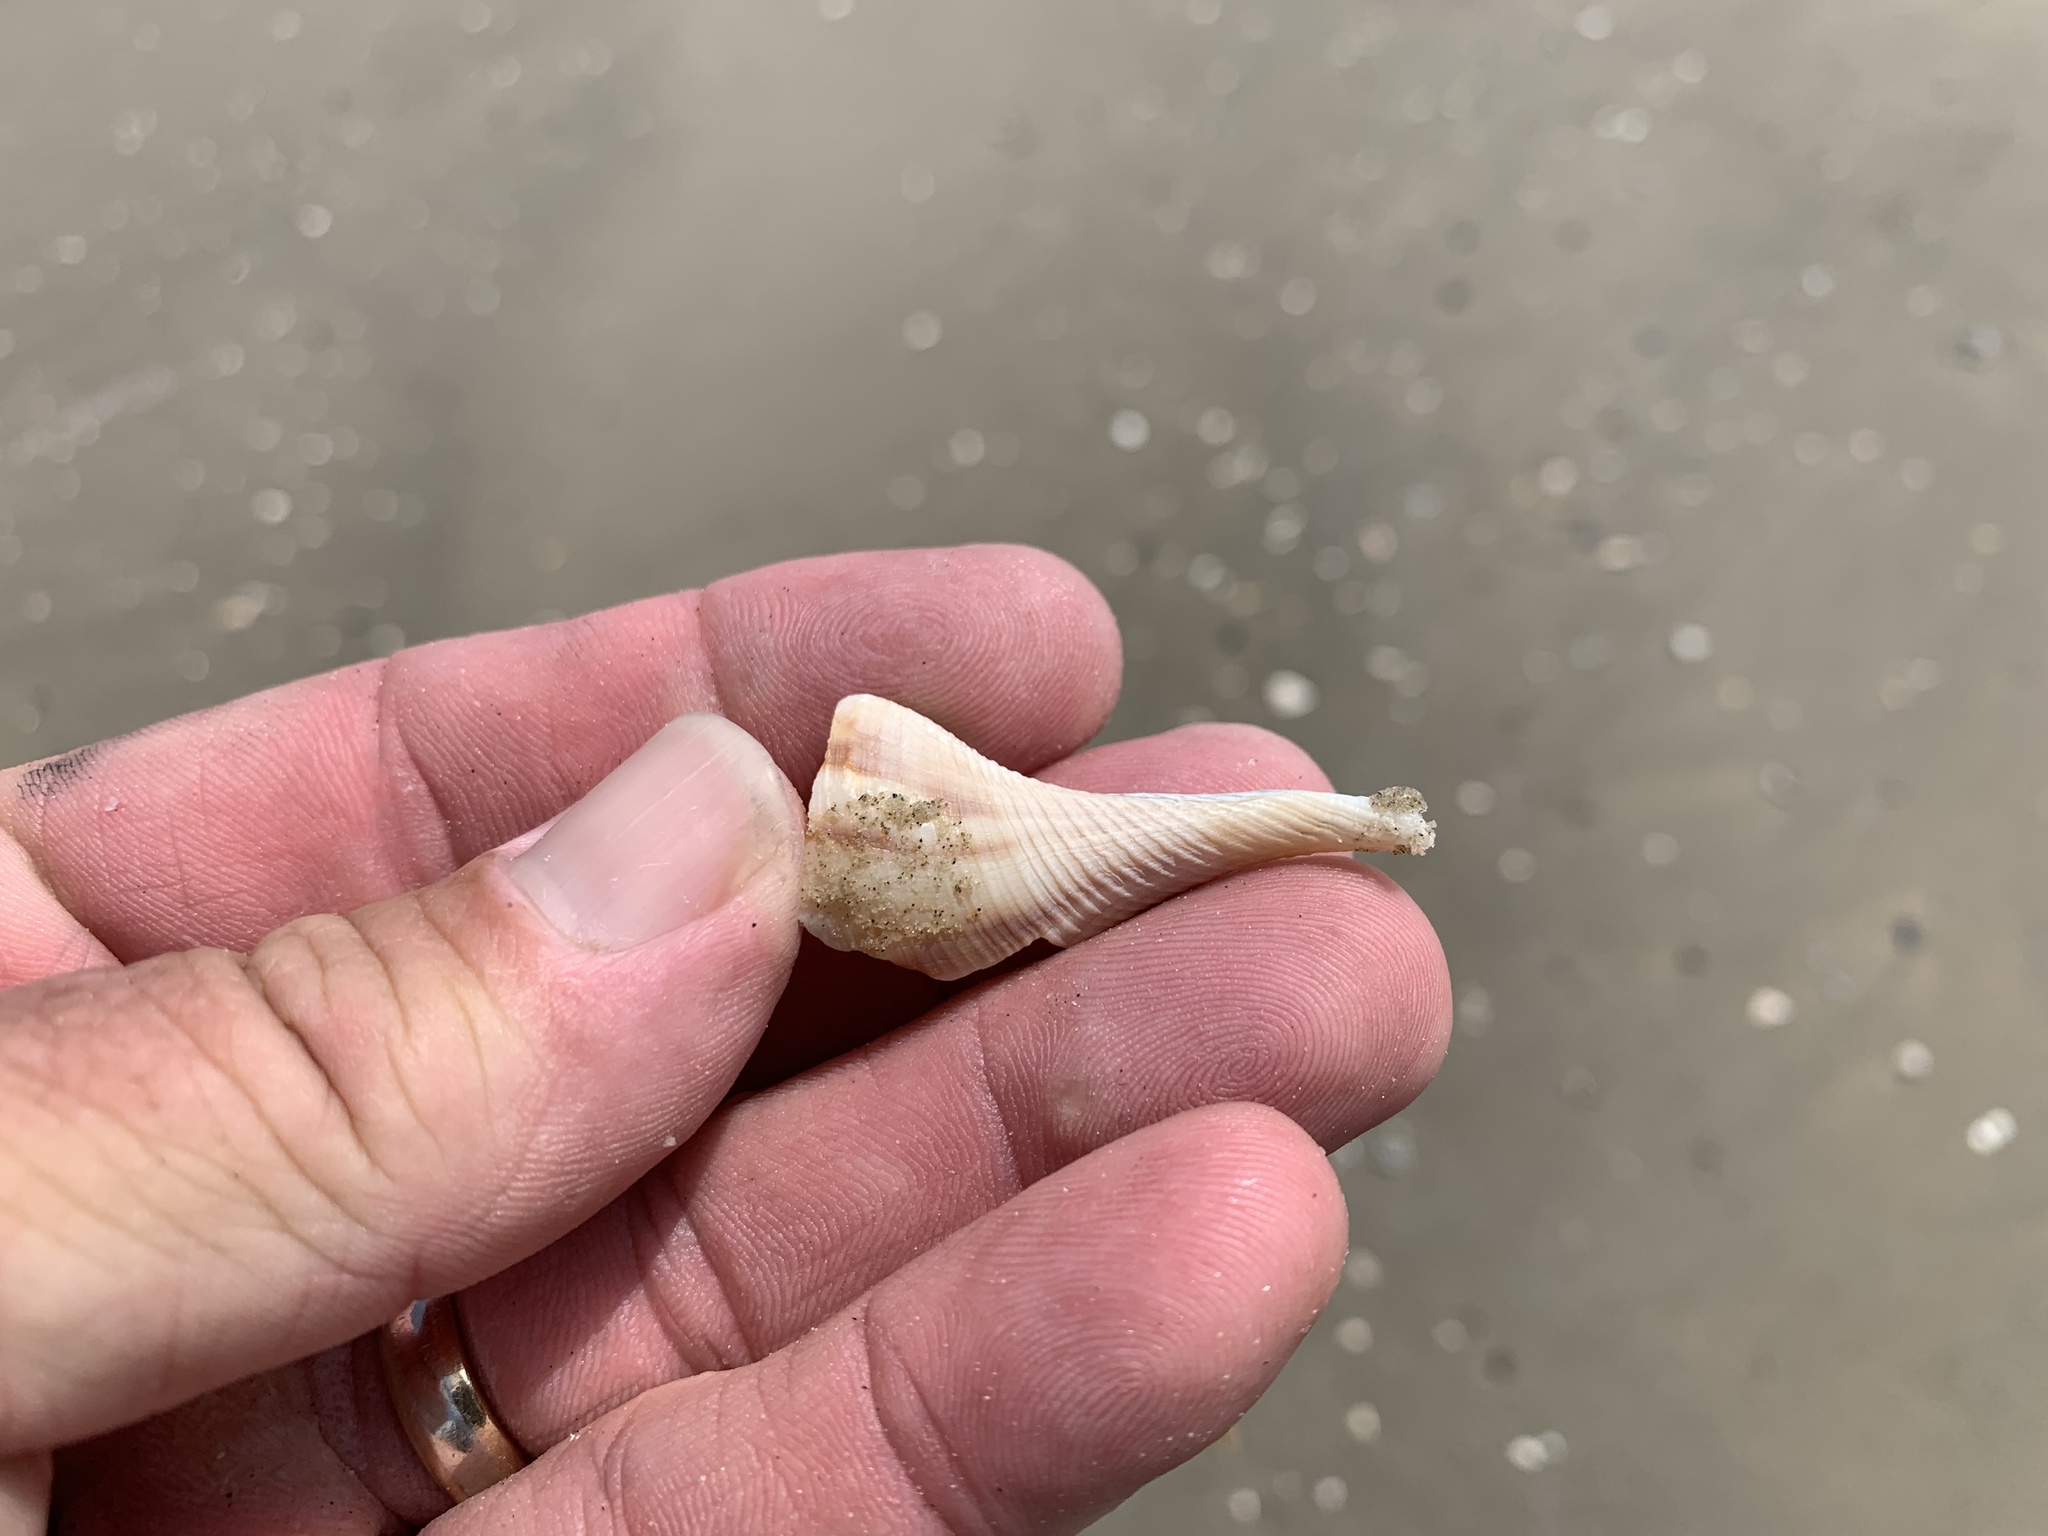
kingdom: Animalia
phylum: Mollusca
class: Gastropoda
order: Neogastropoda
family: Busyconidae
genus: Sinistrofulgur
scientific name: Sinistrofulgur pulleyi
